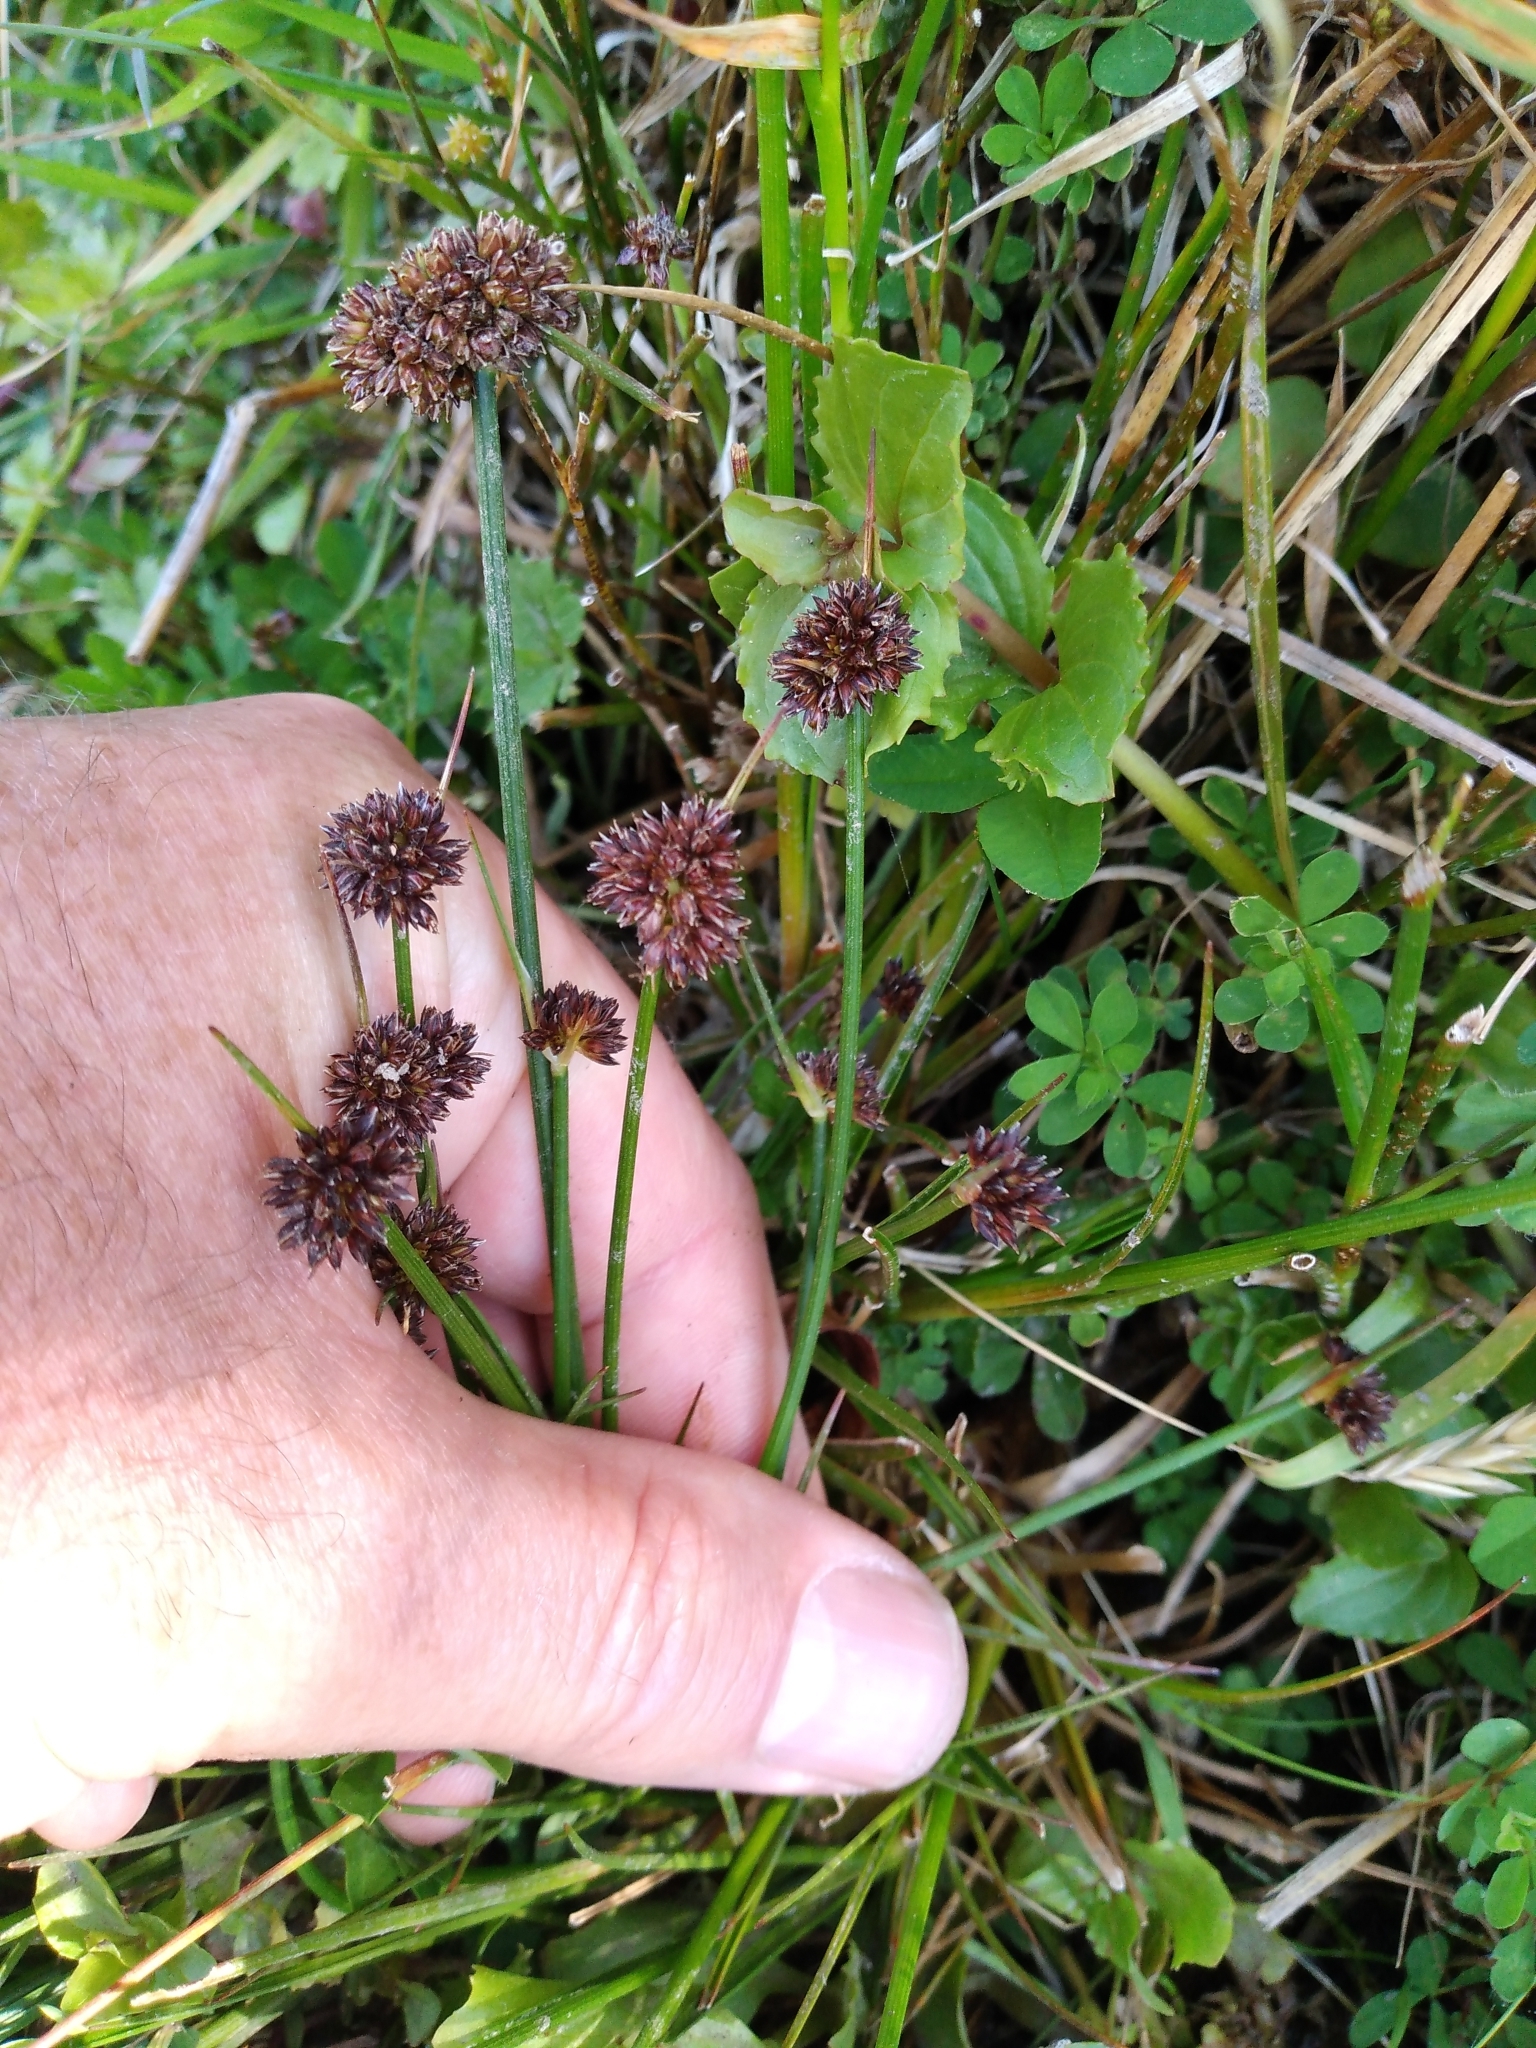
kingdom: Plantae
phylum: Tracheophyta
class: Liliopsida
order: Poales
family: Juncaceae
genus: Juncus
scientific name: Juncus caespiticius
